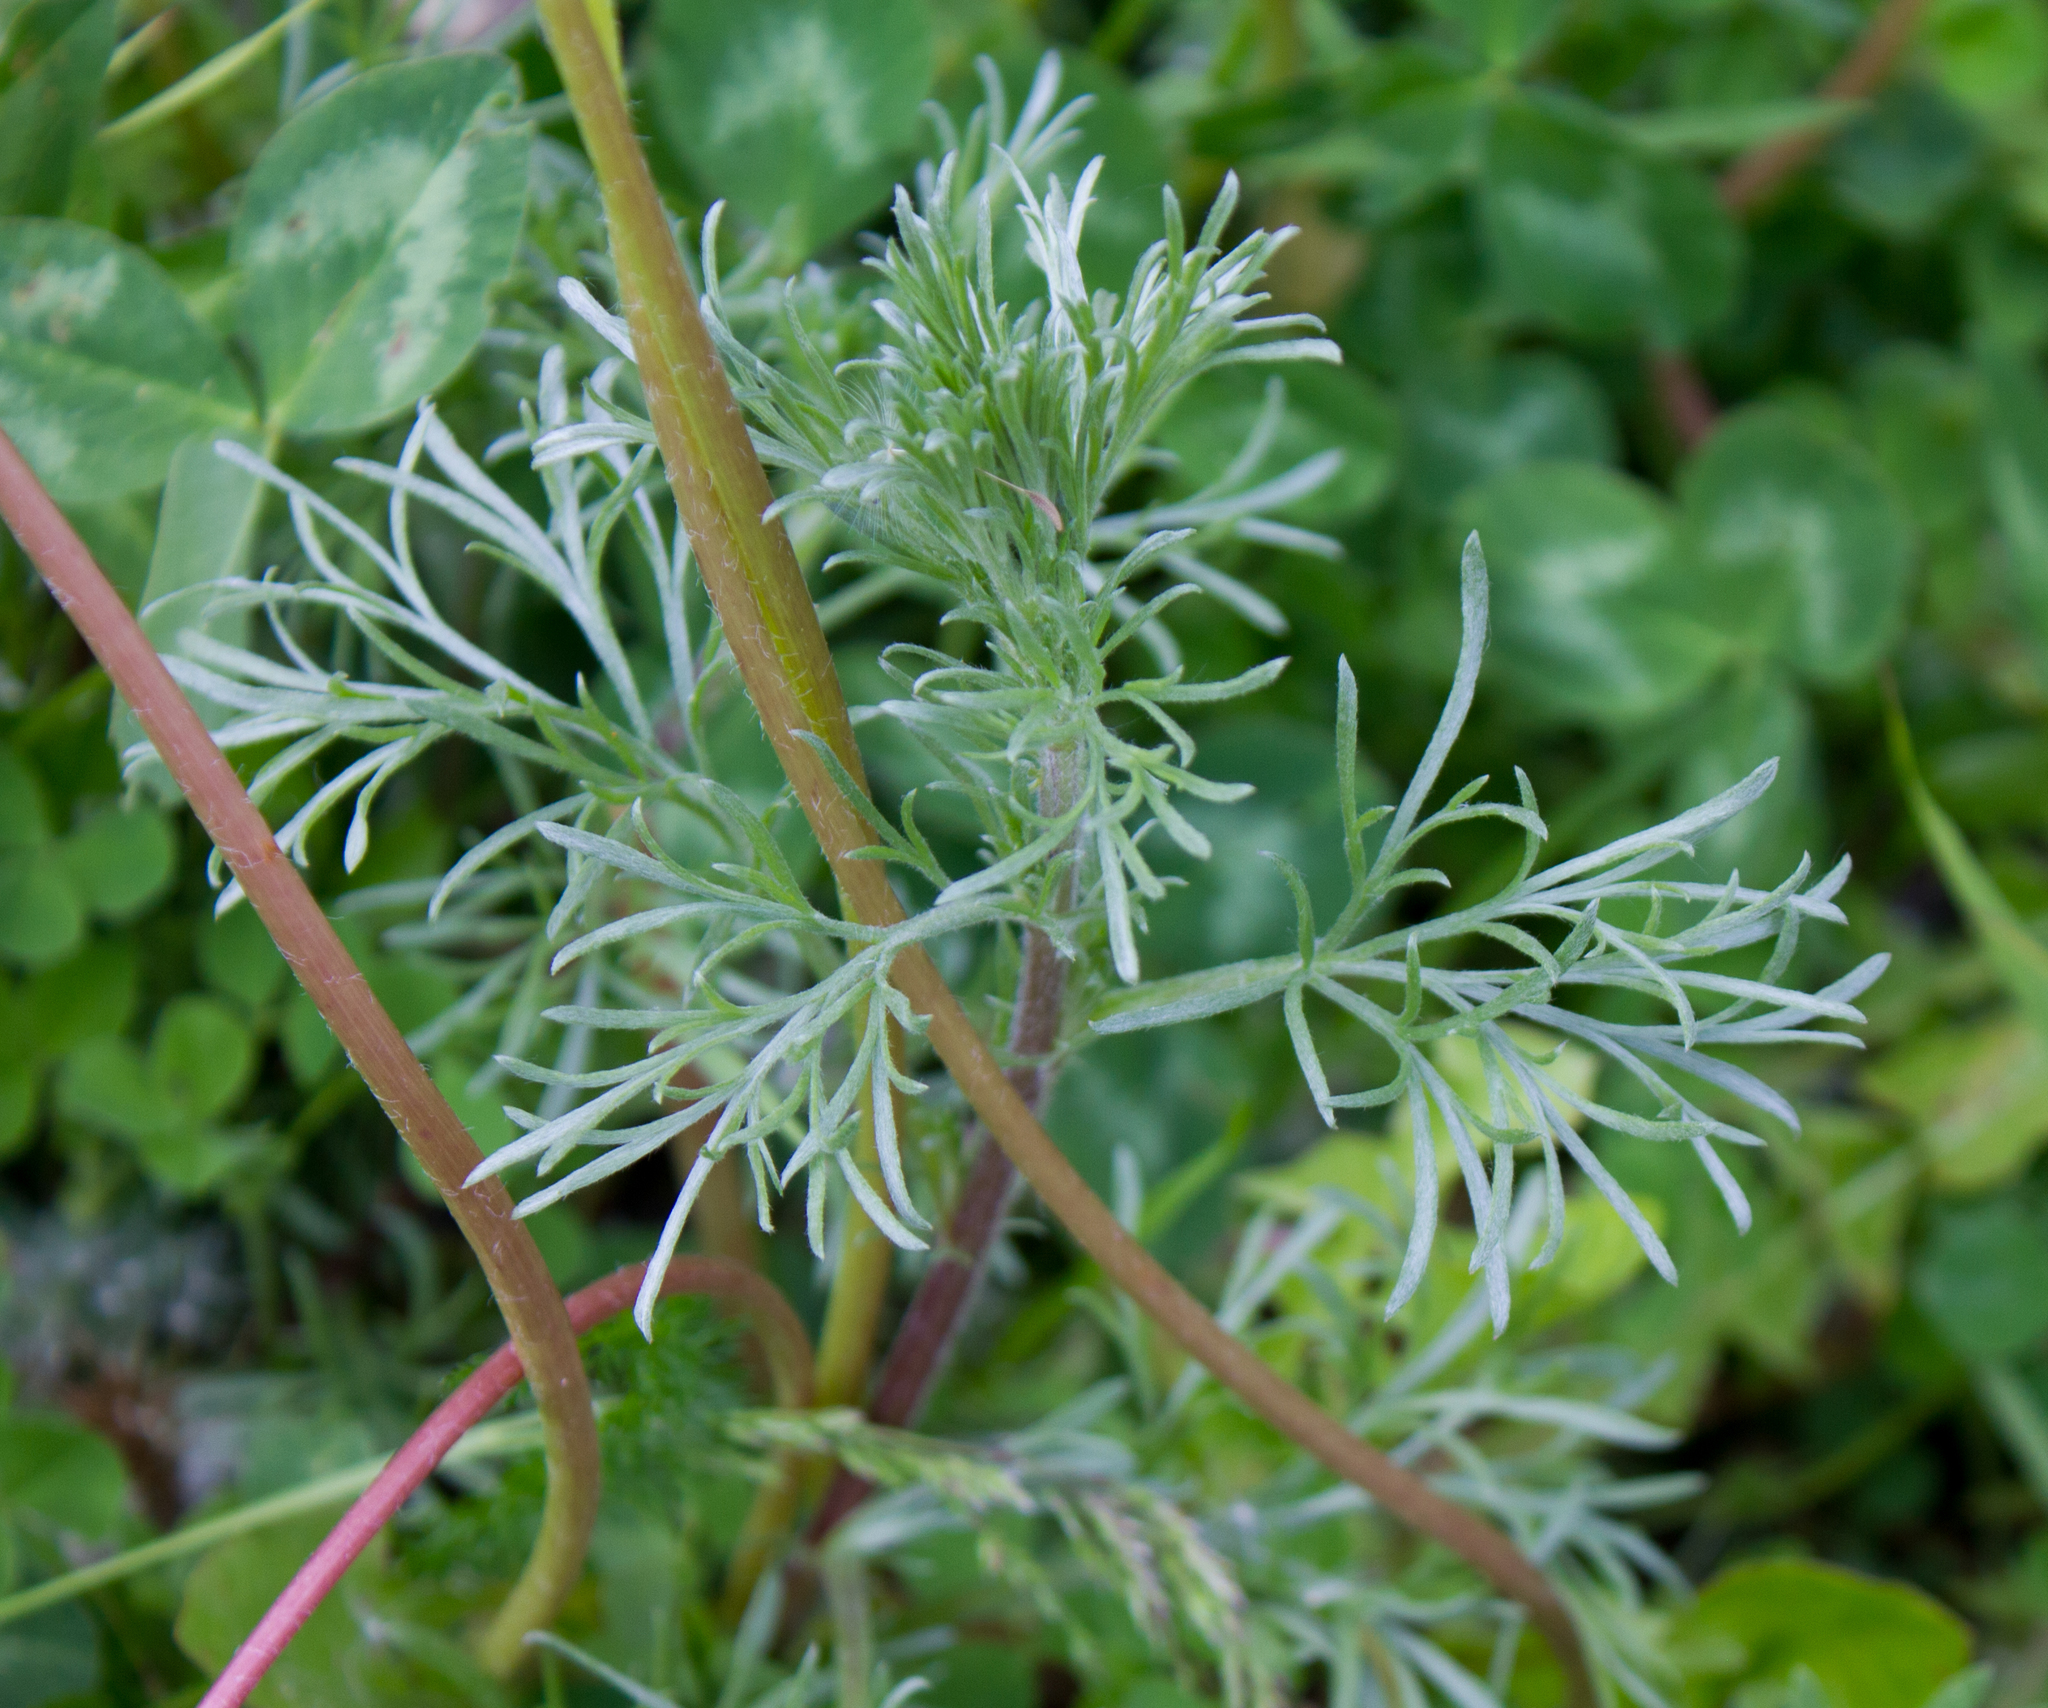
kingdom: Plantae
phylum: Tracheophyta
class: Magnoliopsida
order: Asterales
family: Asteraceae
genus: Artemisia
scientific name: Artemisia campestris
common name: Field wormwood
